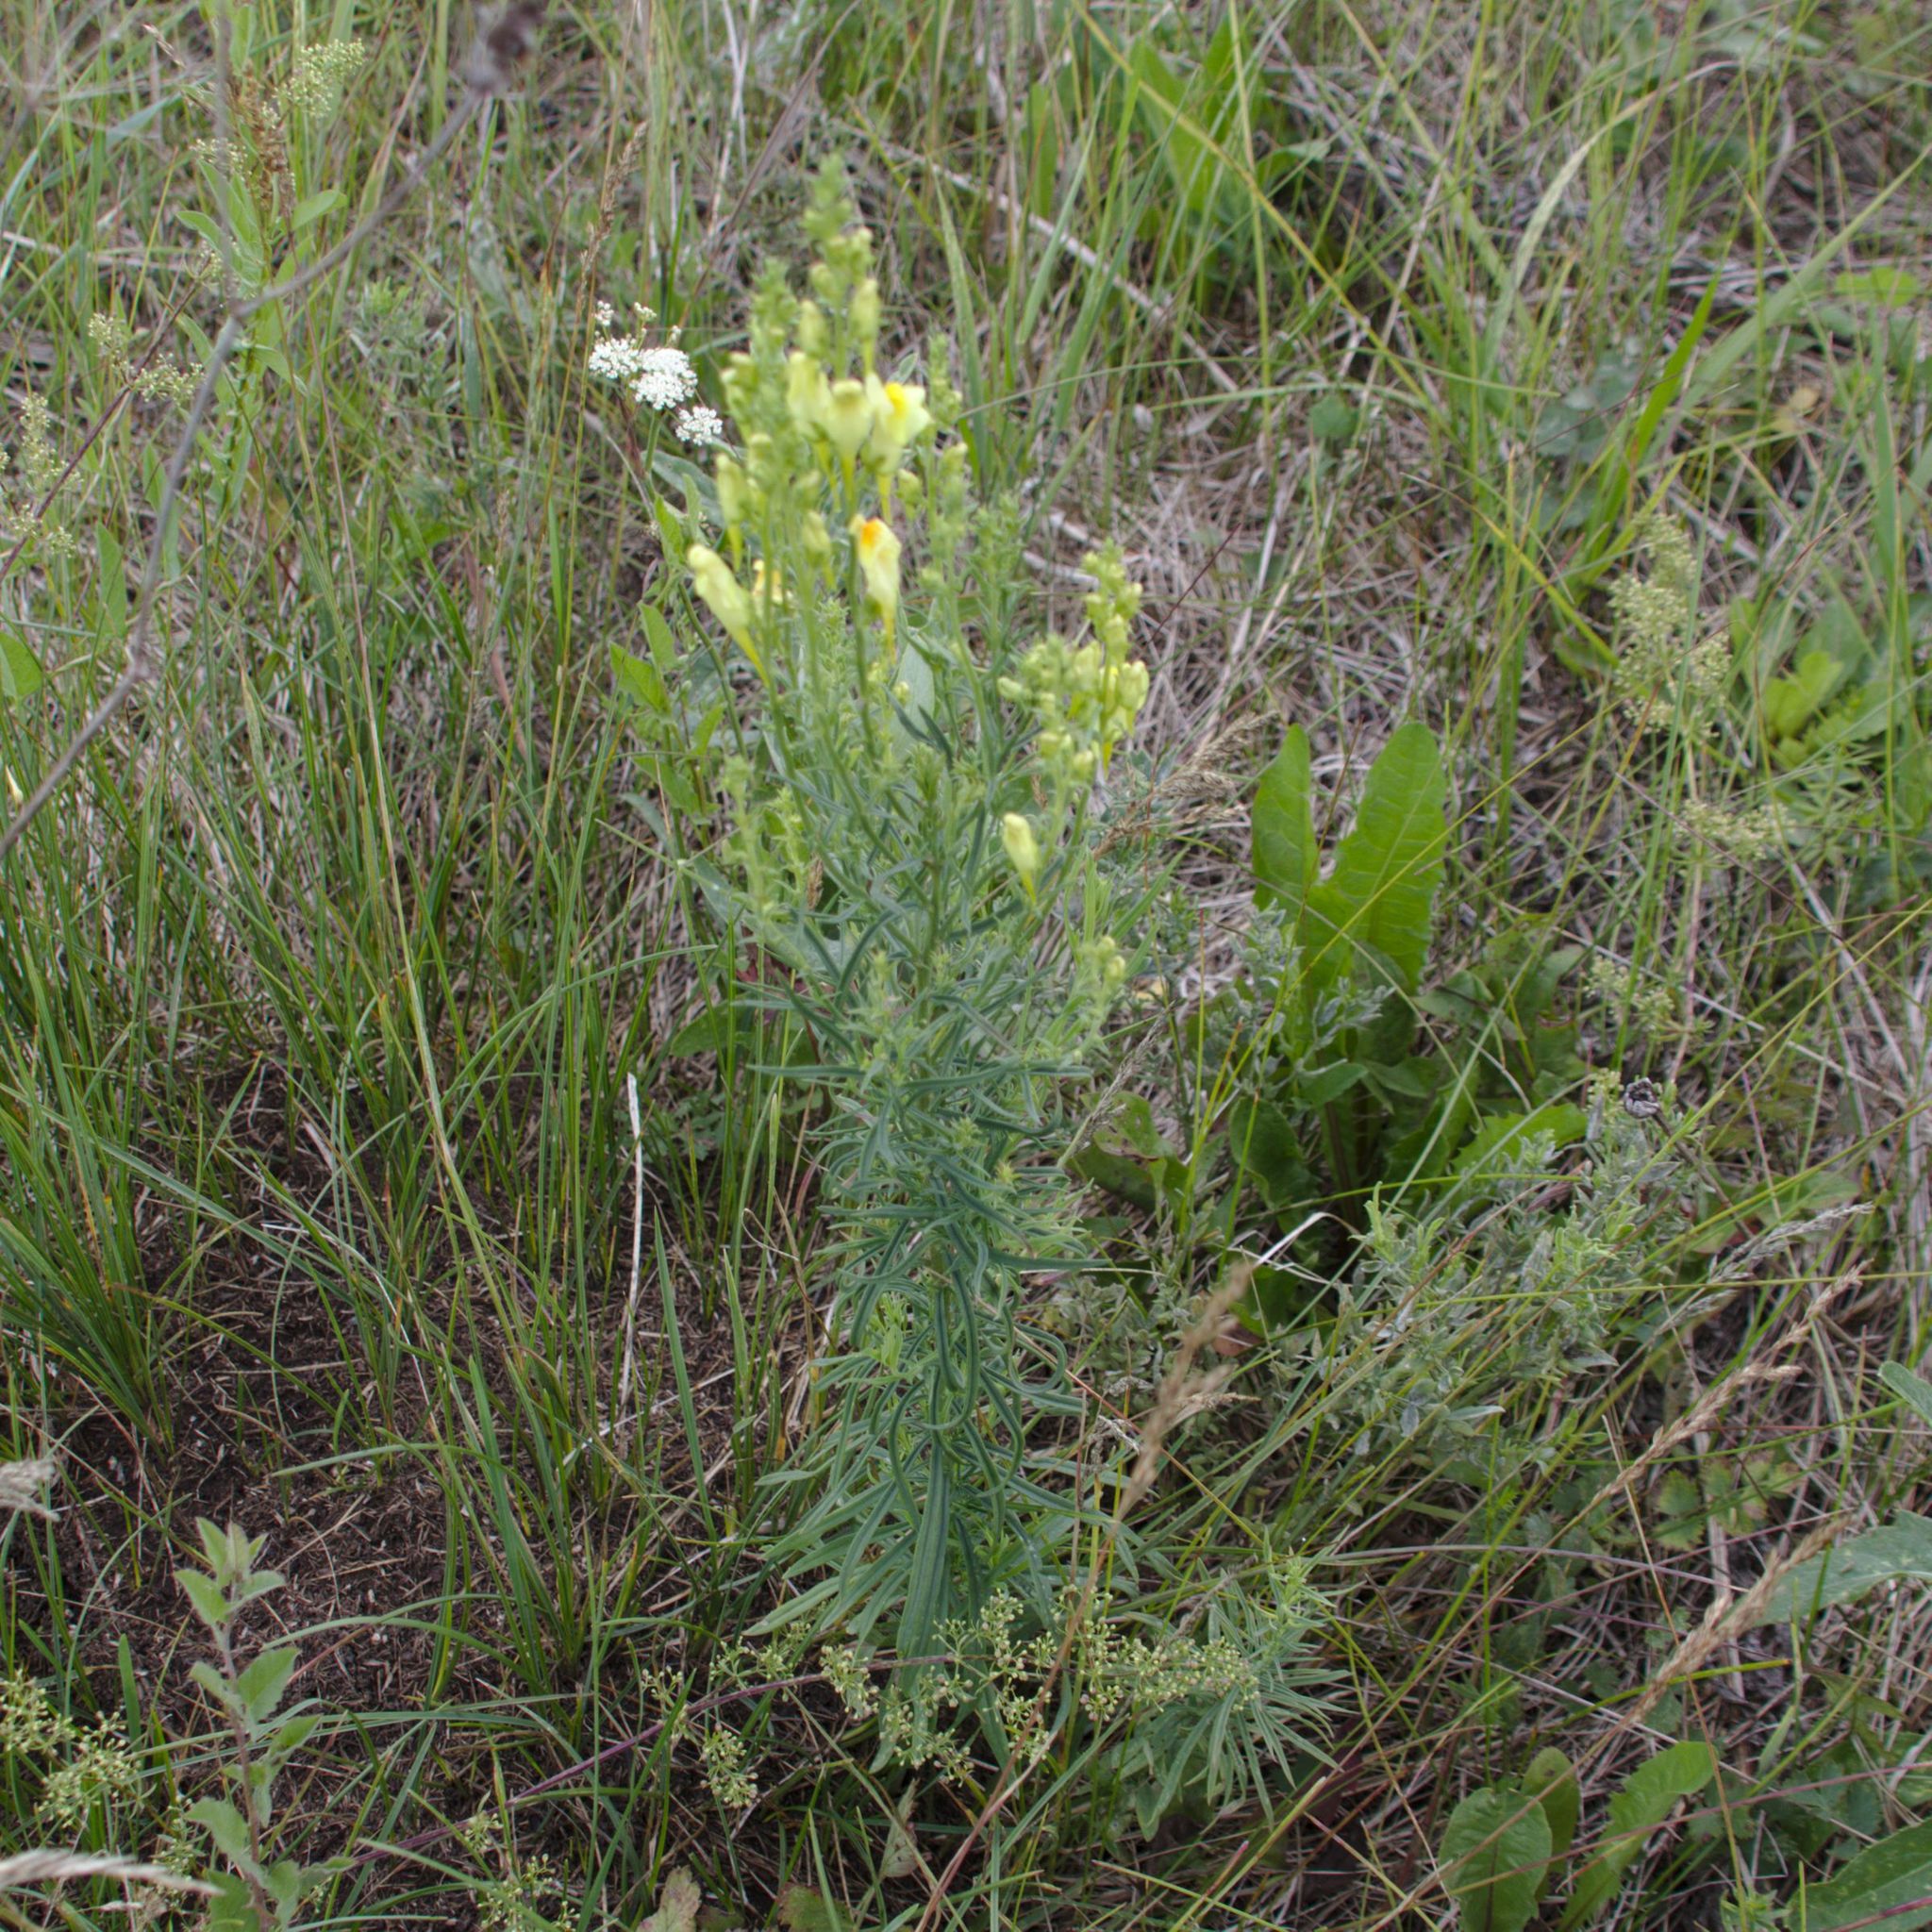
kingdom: Plantae
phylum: Tracheophyta
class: Magnoliopsida
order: Lamiales
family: Plantaginaceae
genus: Linaria
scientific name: Linaria vulgaris
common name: Butter and eggs
